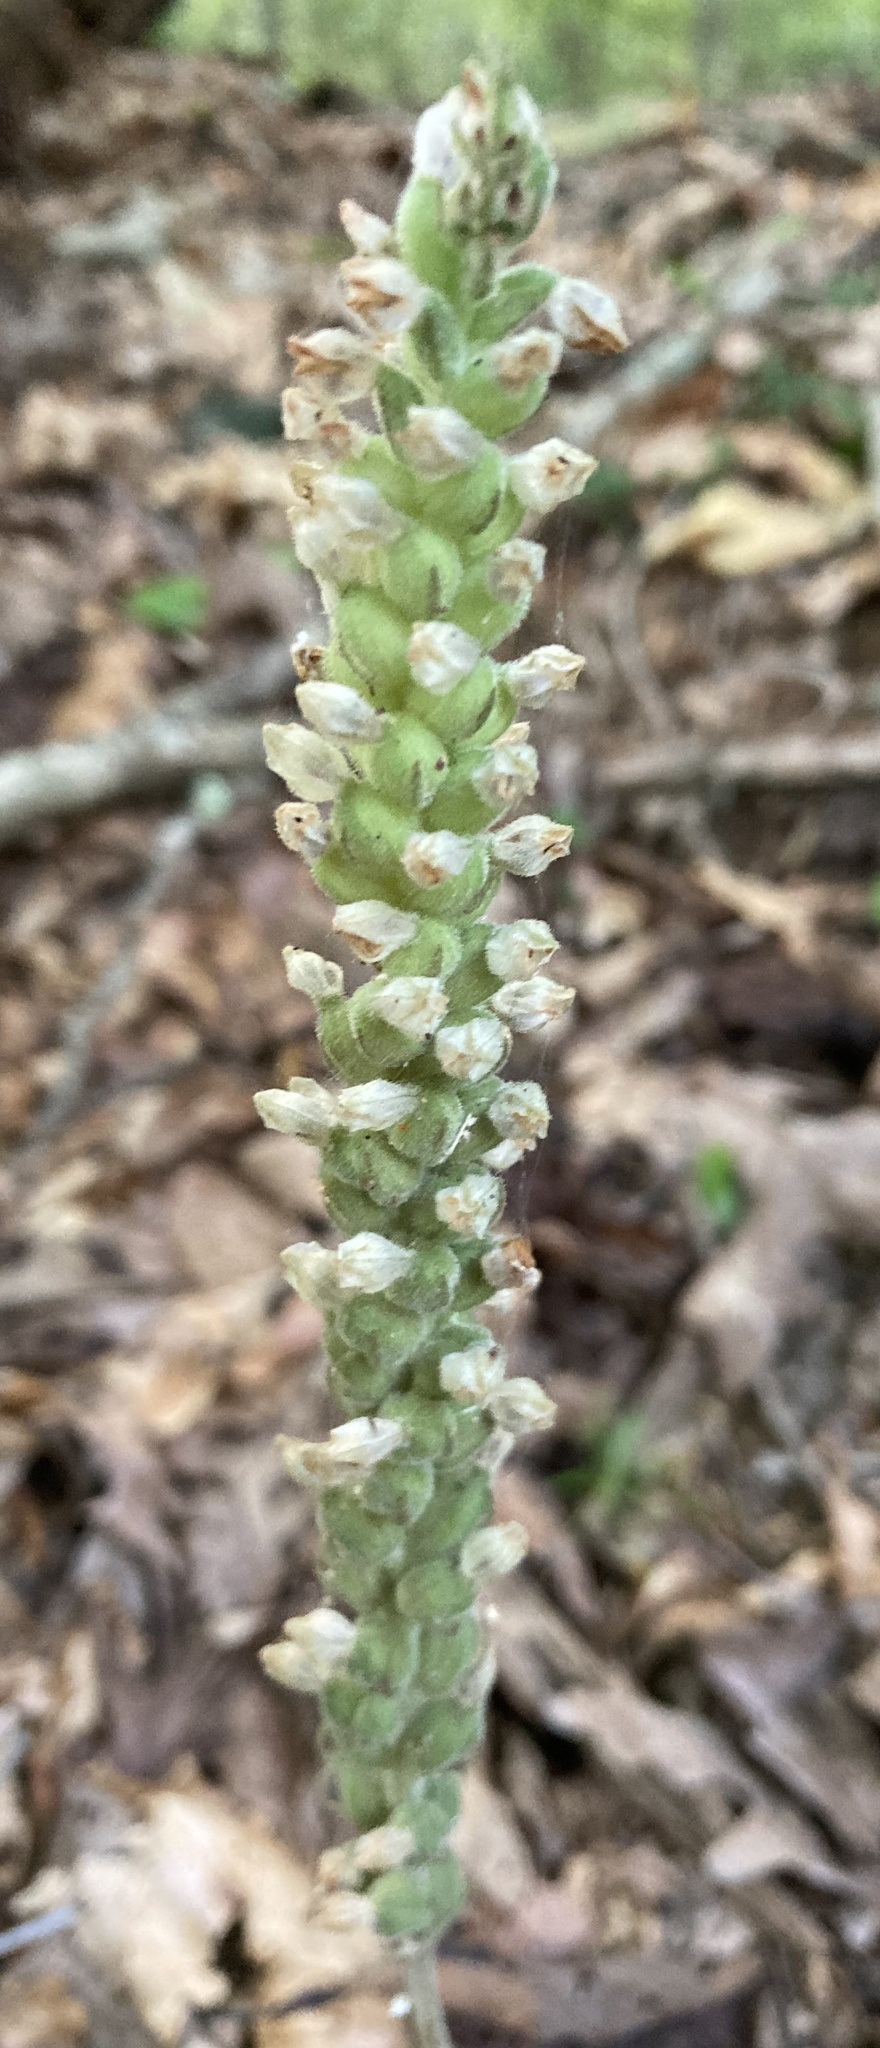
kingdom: Plantae
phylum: Tracheophyta
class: Liliopsida
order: Asparagales
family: Orchidaceae
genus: Goodyera
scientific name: Goodyera pubescens
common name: Downy rattlesnake-plantain
